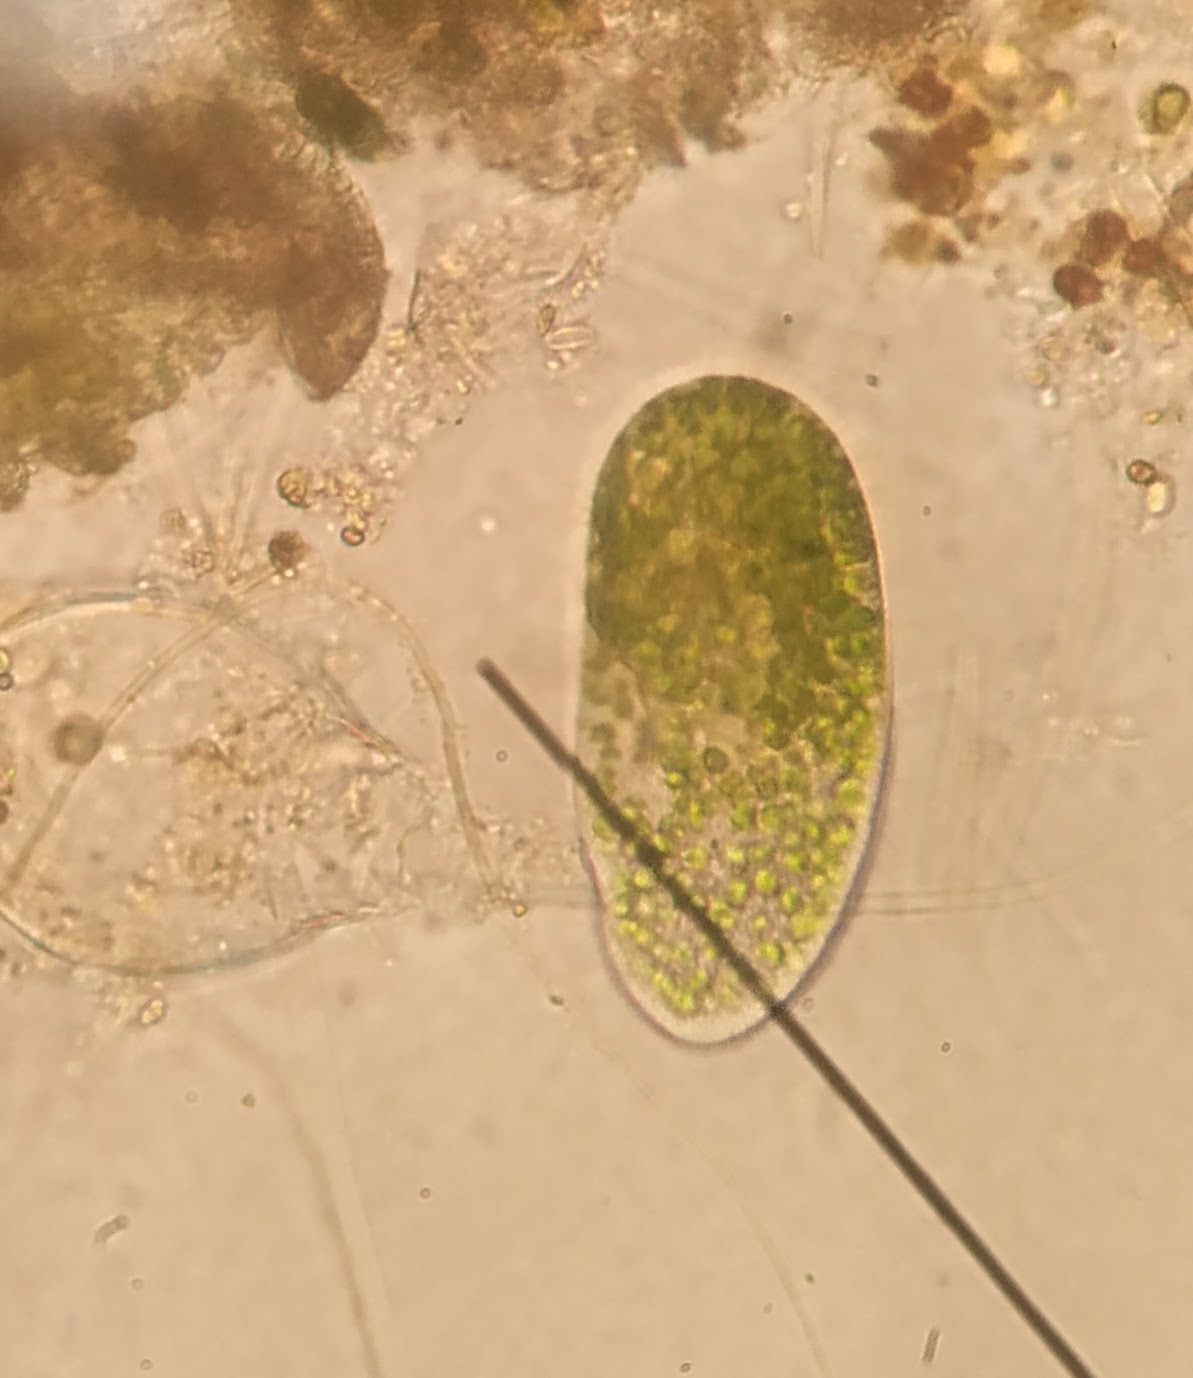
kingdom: Chromista
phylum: Ciliophora
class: Oligohymenophorea
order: Peniculida
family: Parameciidae
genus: Paramecium
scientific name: Paramecium
